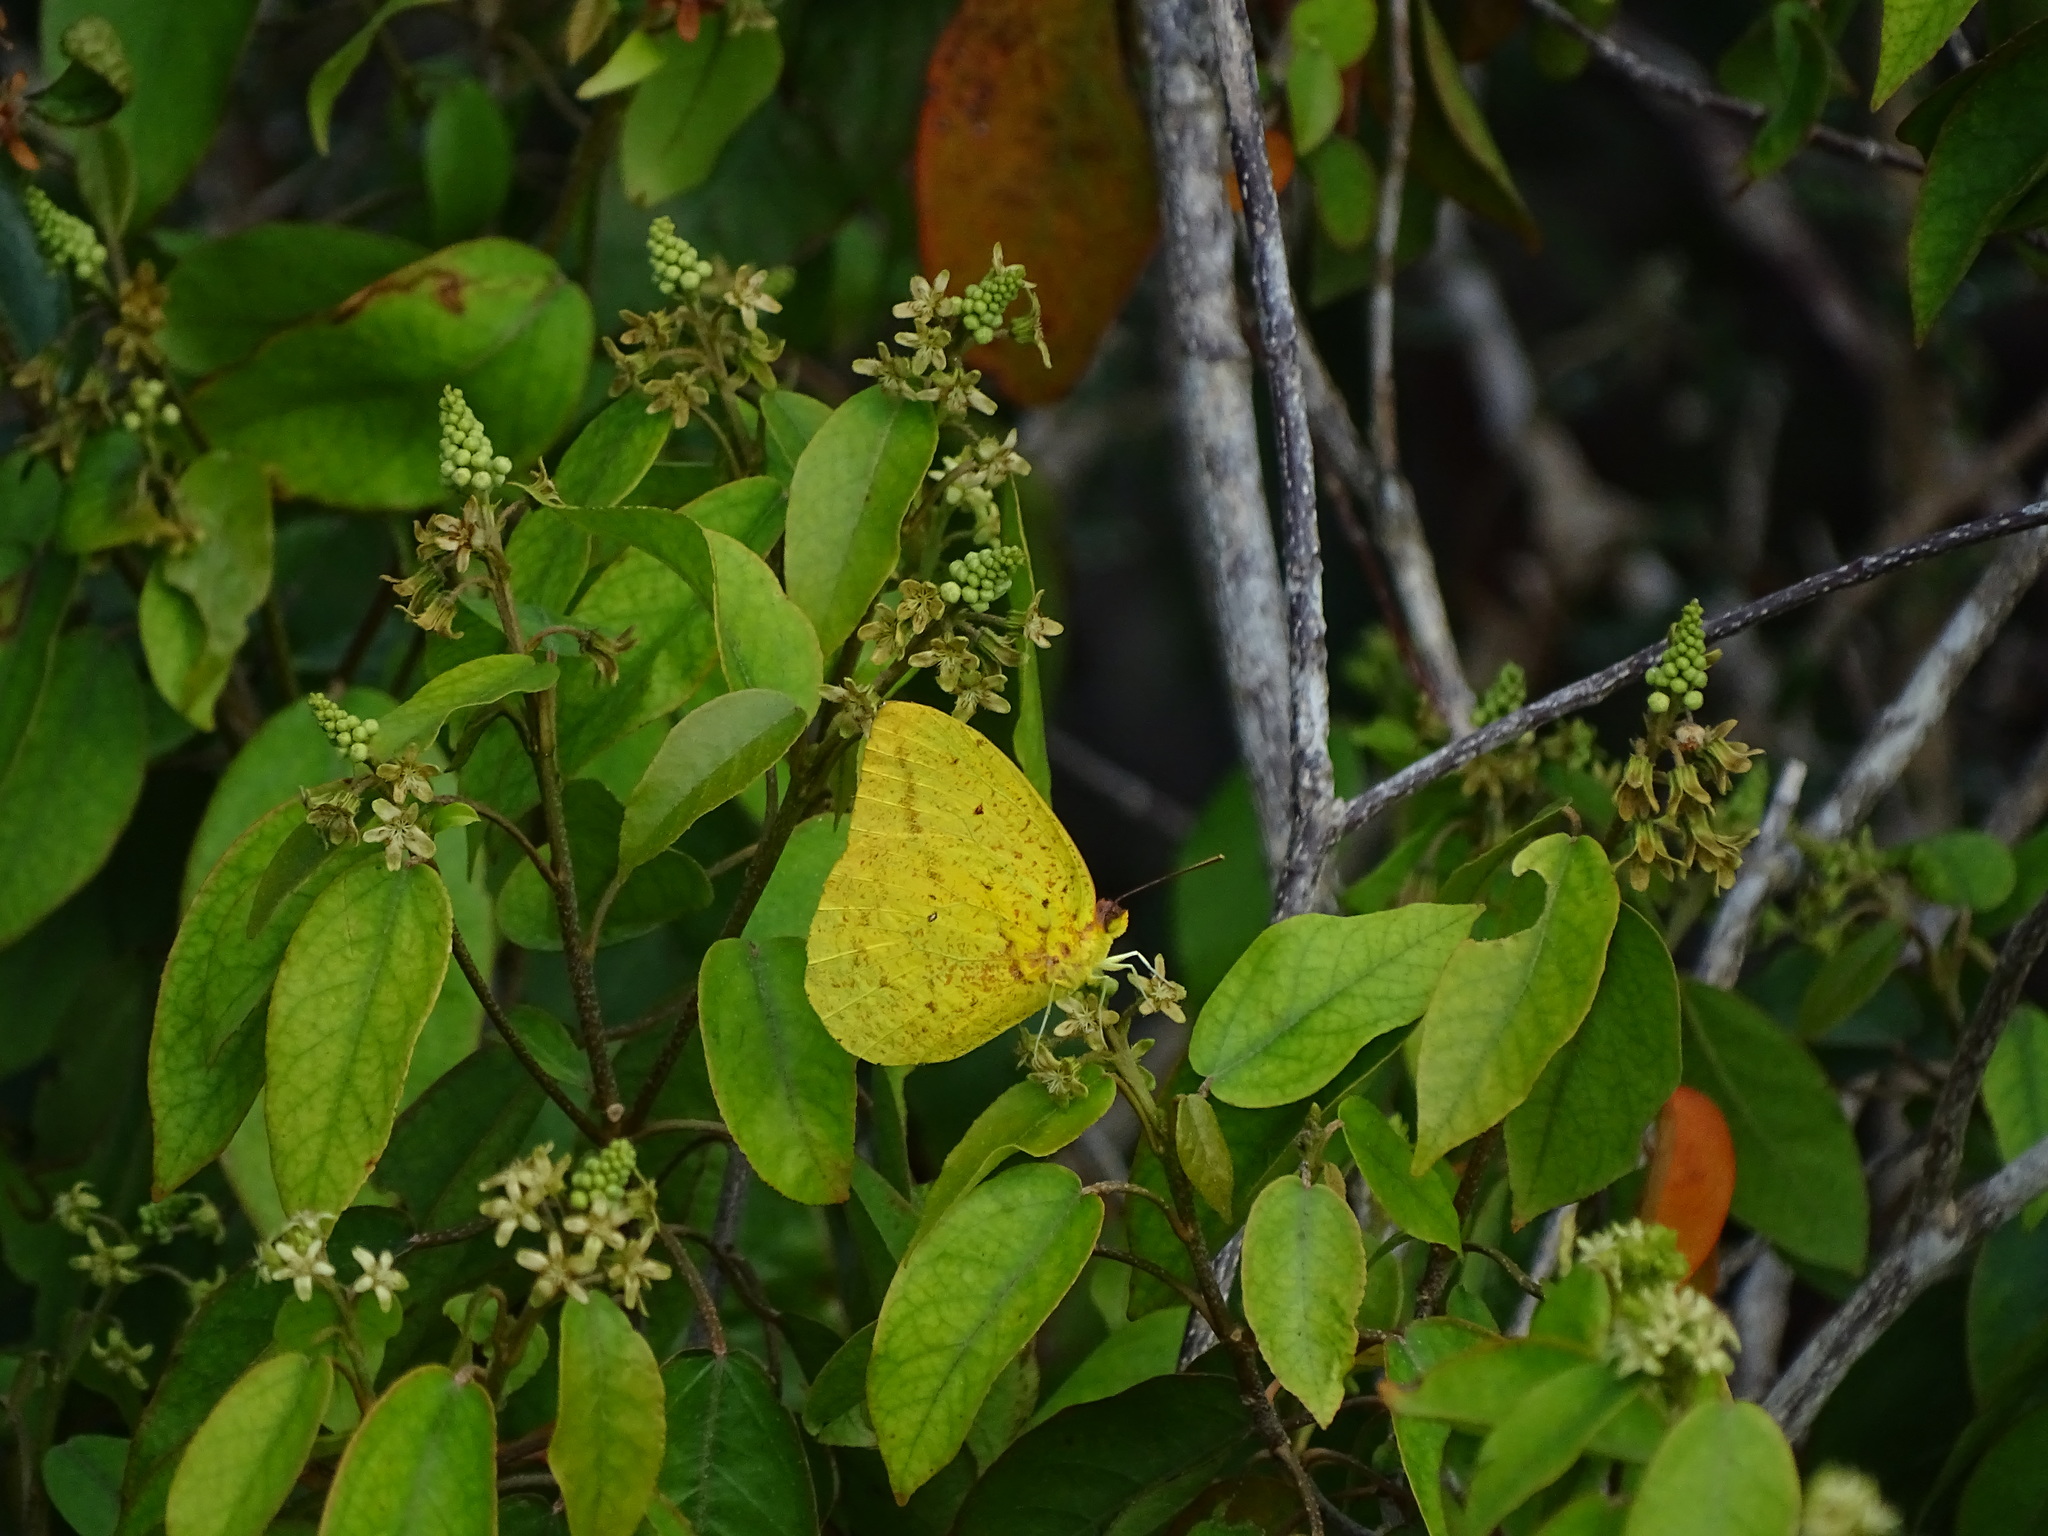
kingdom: Animalia
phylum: Arthropoda
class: Insecta
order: Lepidoptera
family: Pieridae
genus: Phoebis
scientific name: Phoebis agarithe
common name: Large orange sulphur
